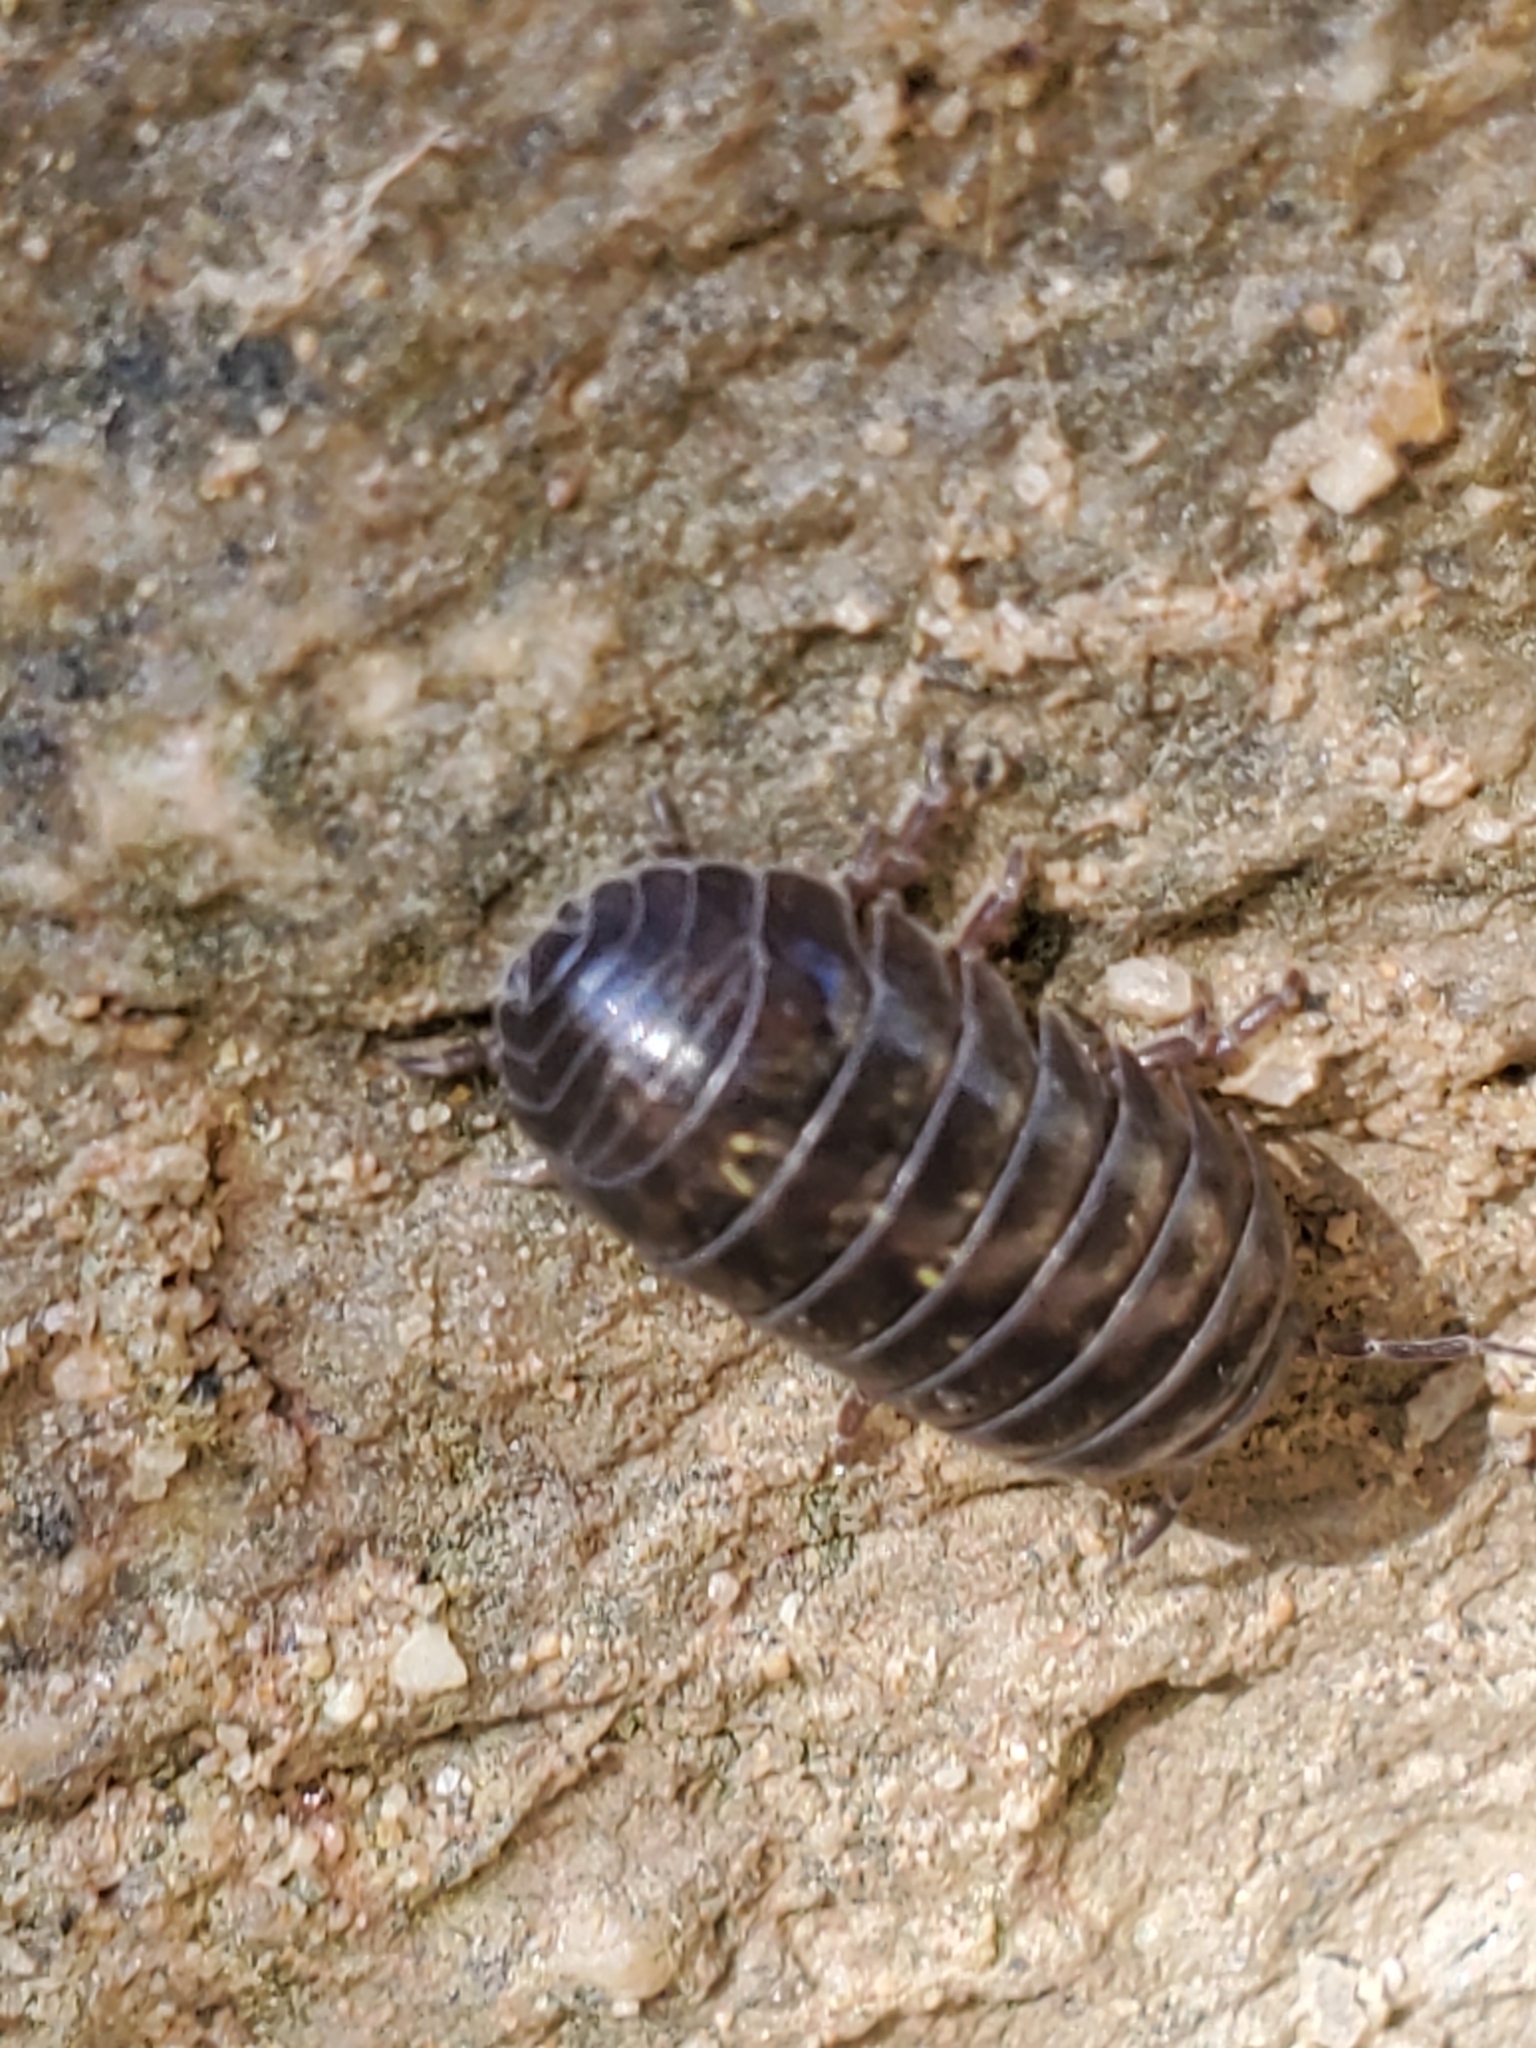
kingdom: Animalia
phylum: Arthropoda
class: Malacostraca
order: Isopoda
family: Armadillidiidae
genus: Armadillidium
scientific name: Armadillidium vulgare
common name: Common pill woodlouse
